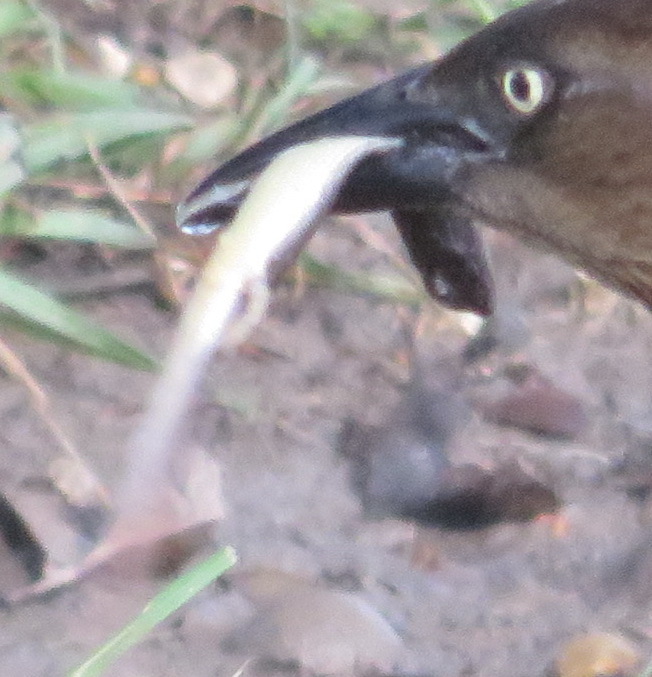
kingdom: Animalia
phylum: Chordata
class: Squamata
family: Scincidae
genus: Scincella
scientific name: Scincella lateralis
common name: Ground skink
